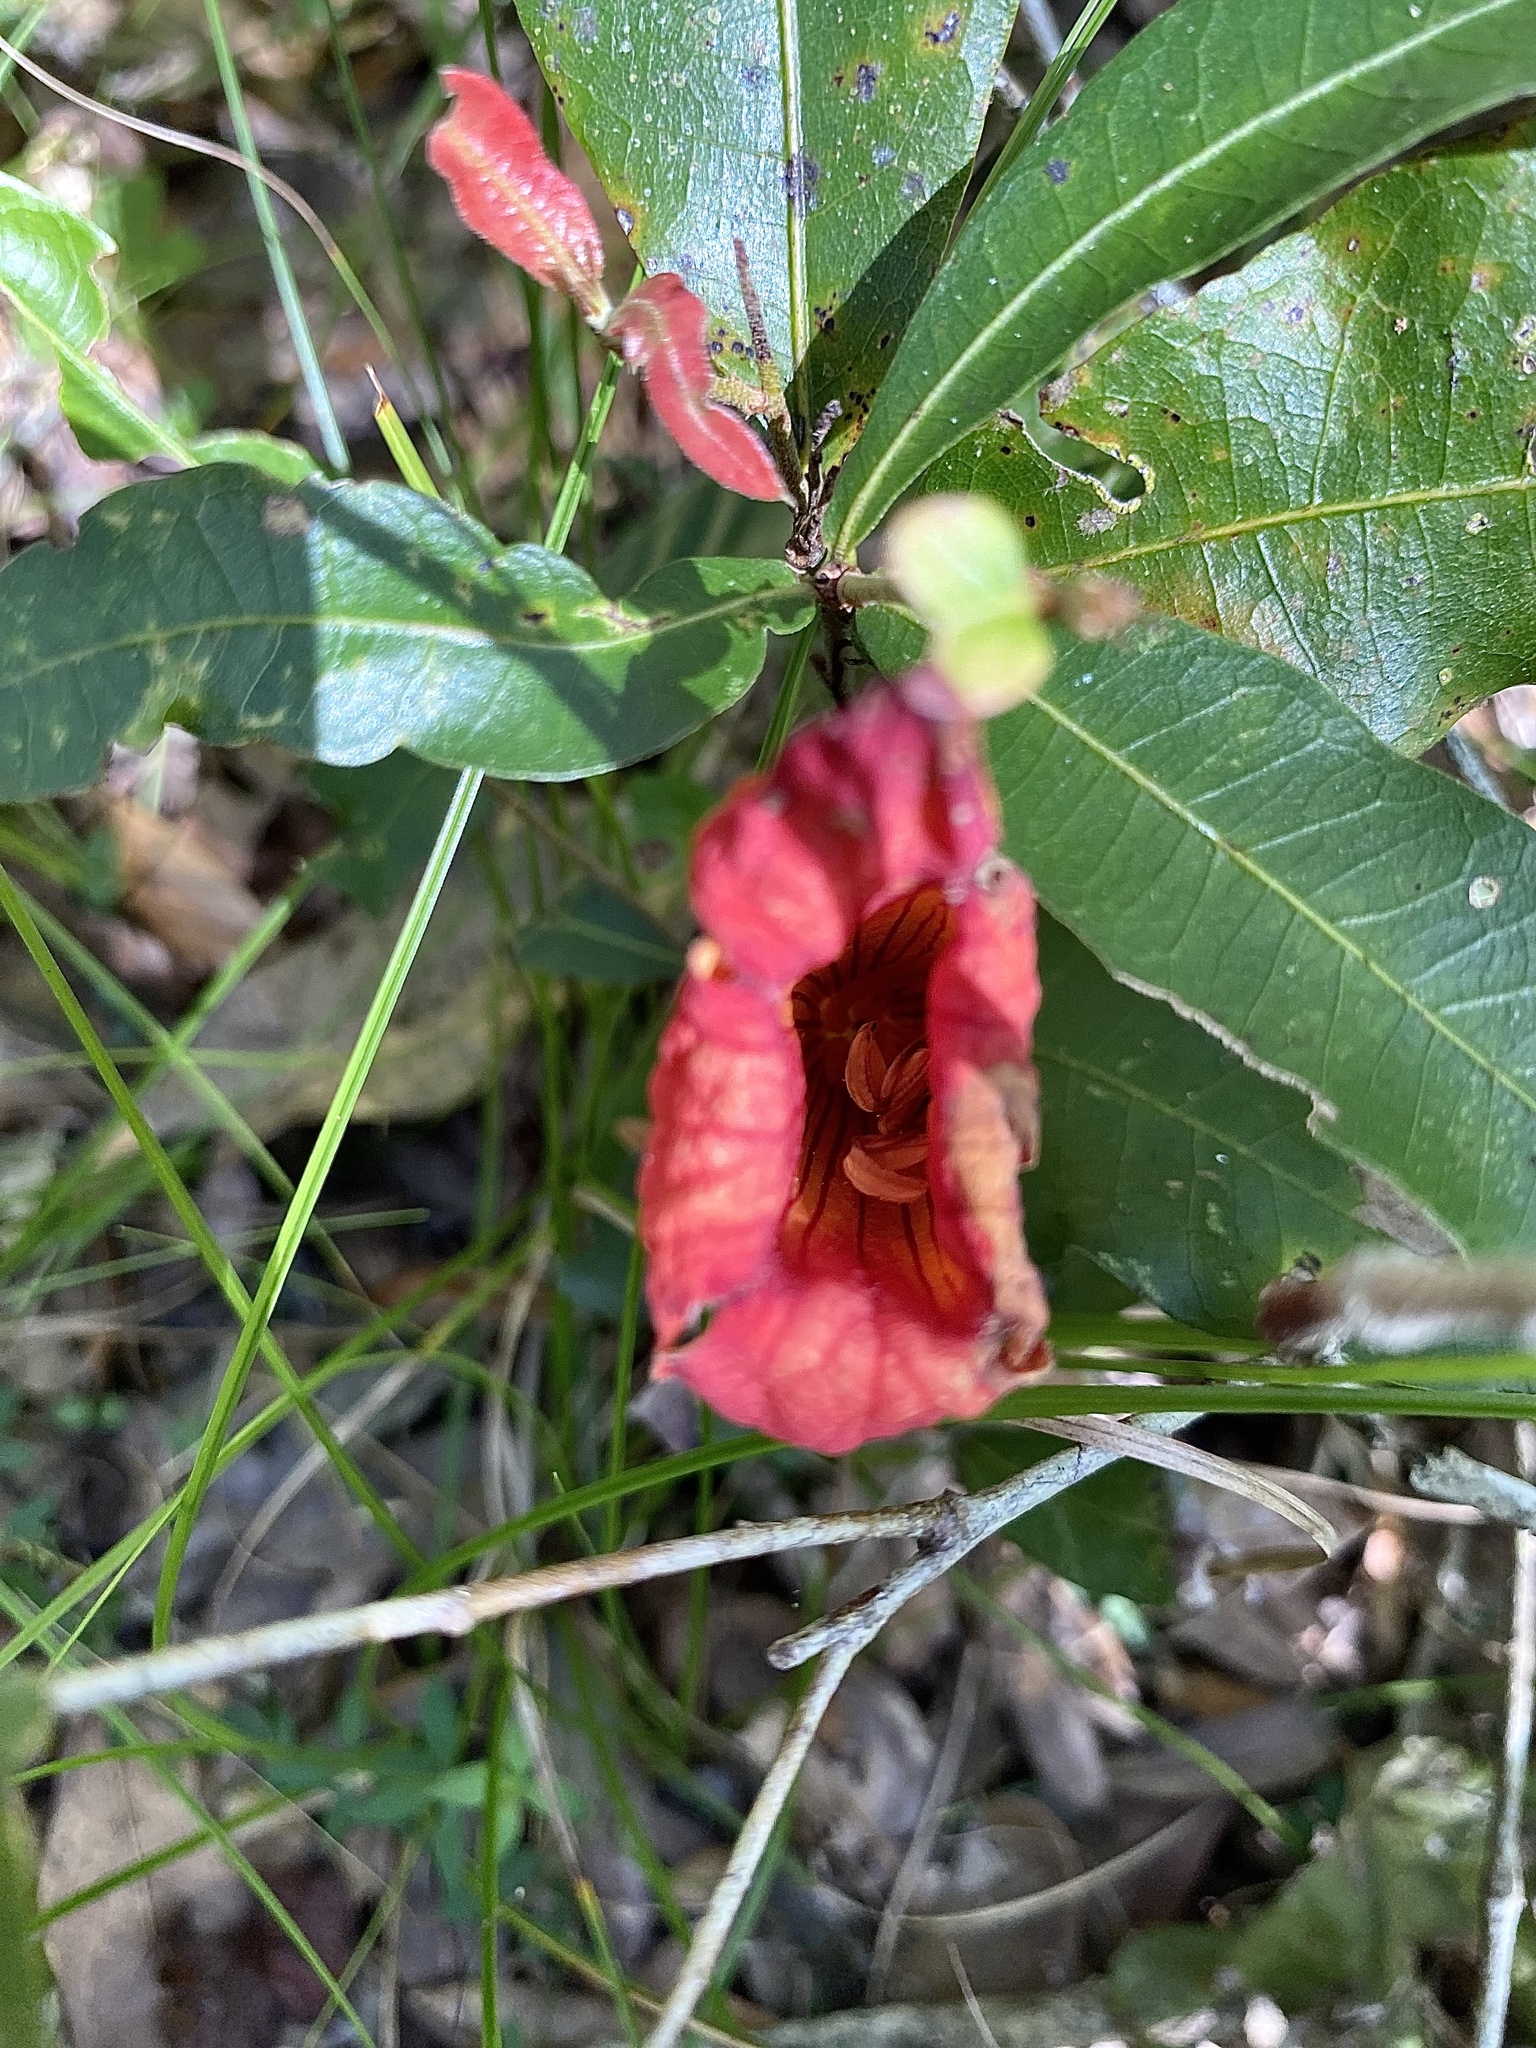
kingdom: Plantae
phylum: Tracheophyta
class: Magnoliopsida
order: Lamiales
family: Bignoniaceae
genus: Campsis
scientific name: Campsis radicans
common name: Trumpet-creeper
